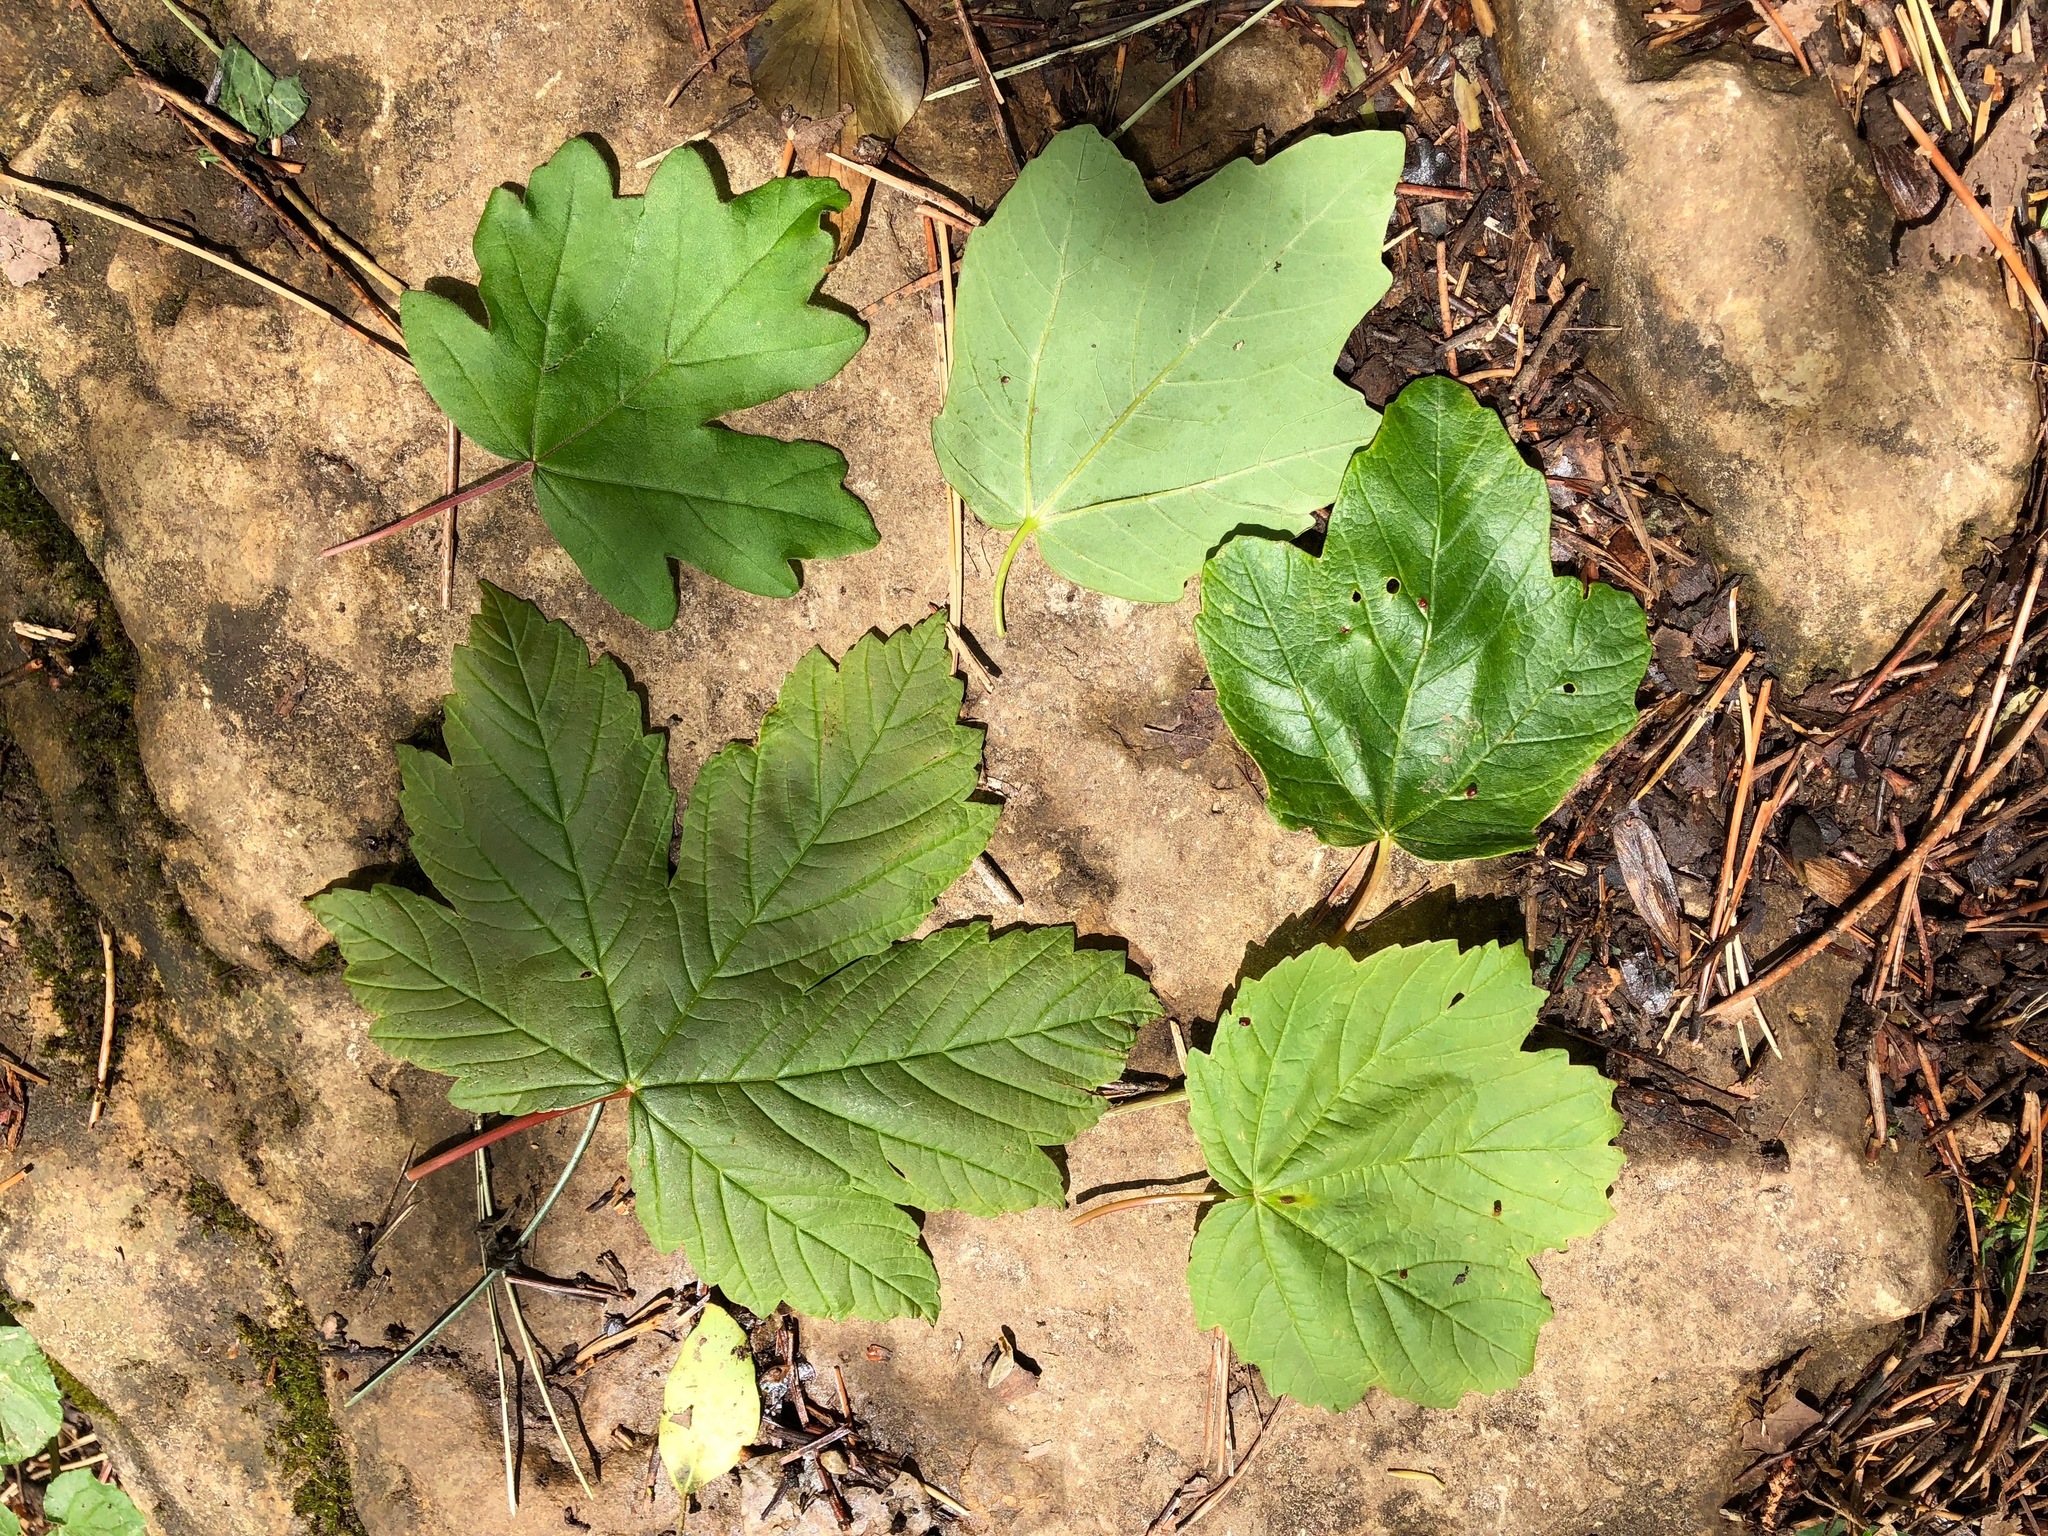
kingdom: Plantae
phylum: Tracheophyta
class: Magnoliopsida
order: Sapindales
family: Sapindaceae
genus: Acer
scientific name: Acer pseudoplatanus
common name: Sycamore
